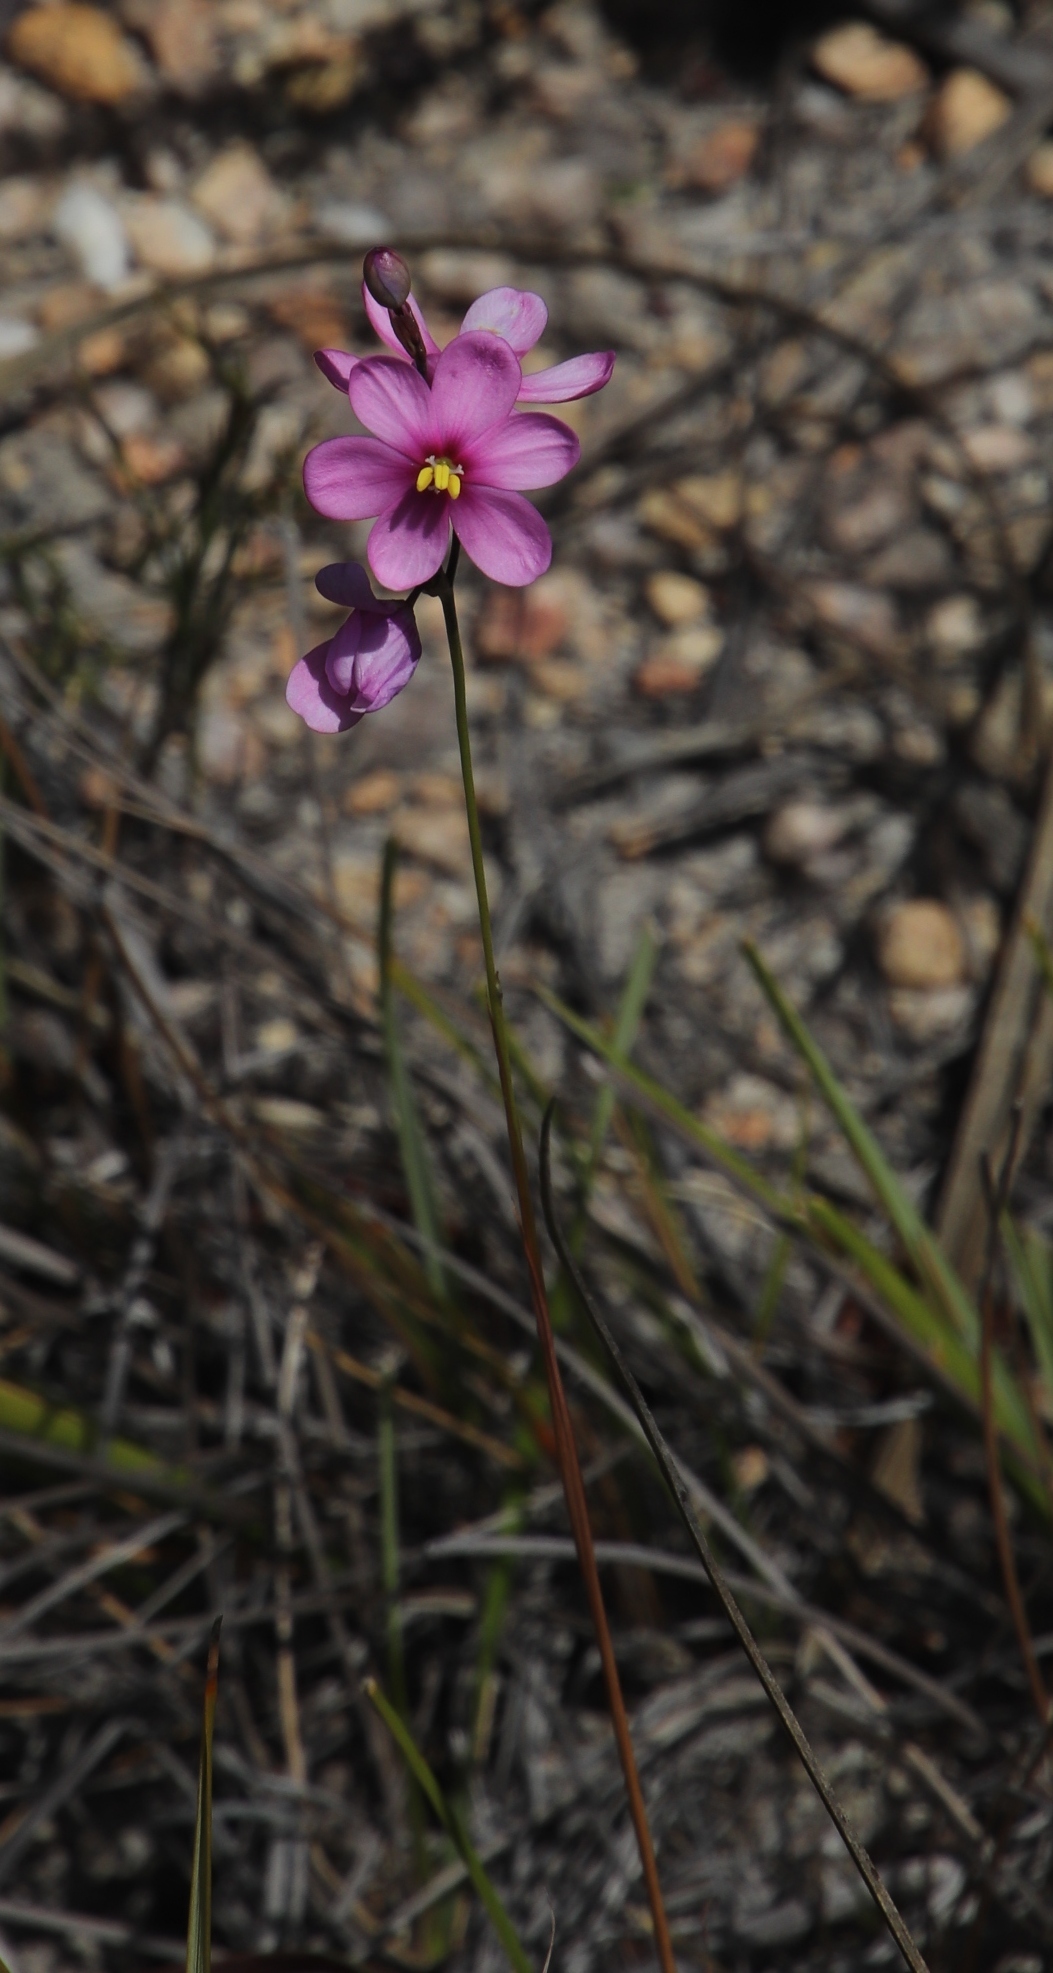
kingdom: Plantae
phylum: Tracheophyta
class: Liliopsida
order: Asparagales
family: Iridaceae
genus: Ixia
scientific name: Ixia stricta
